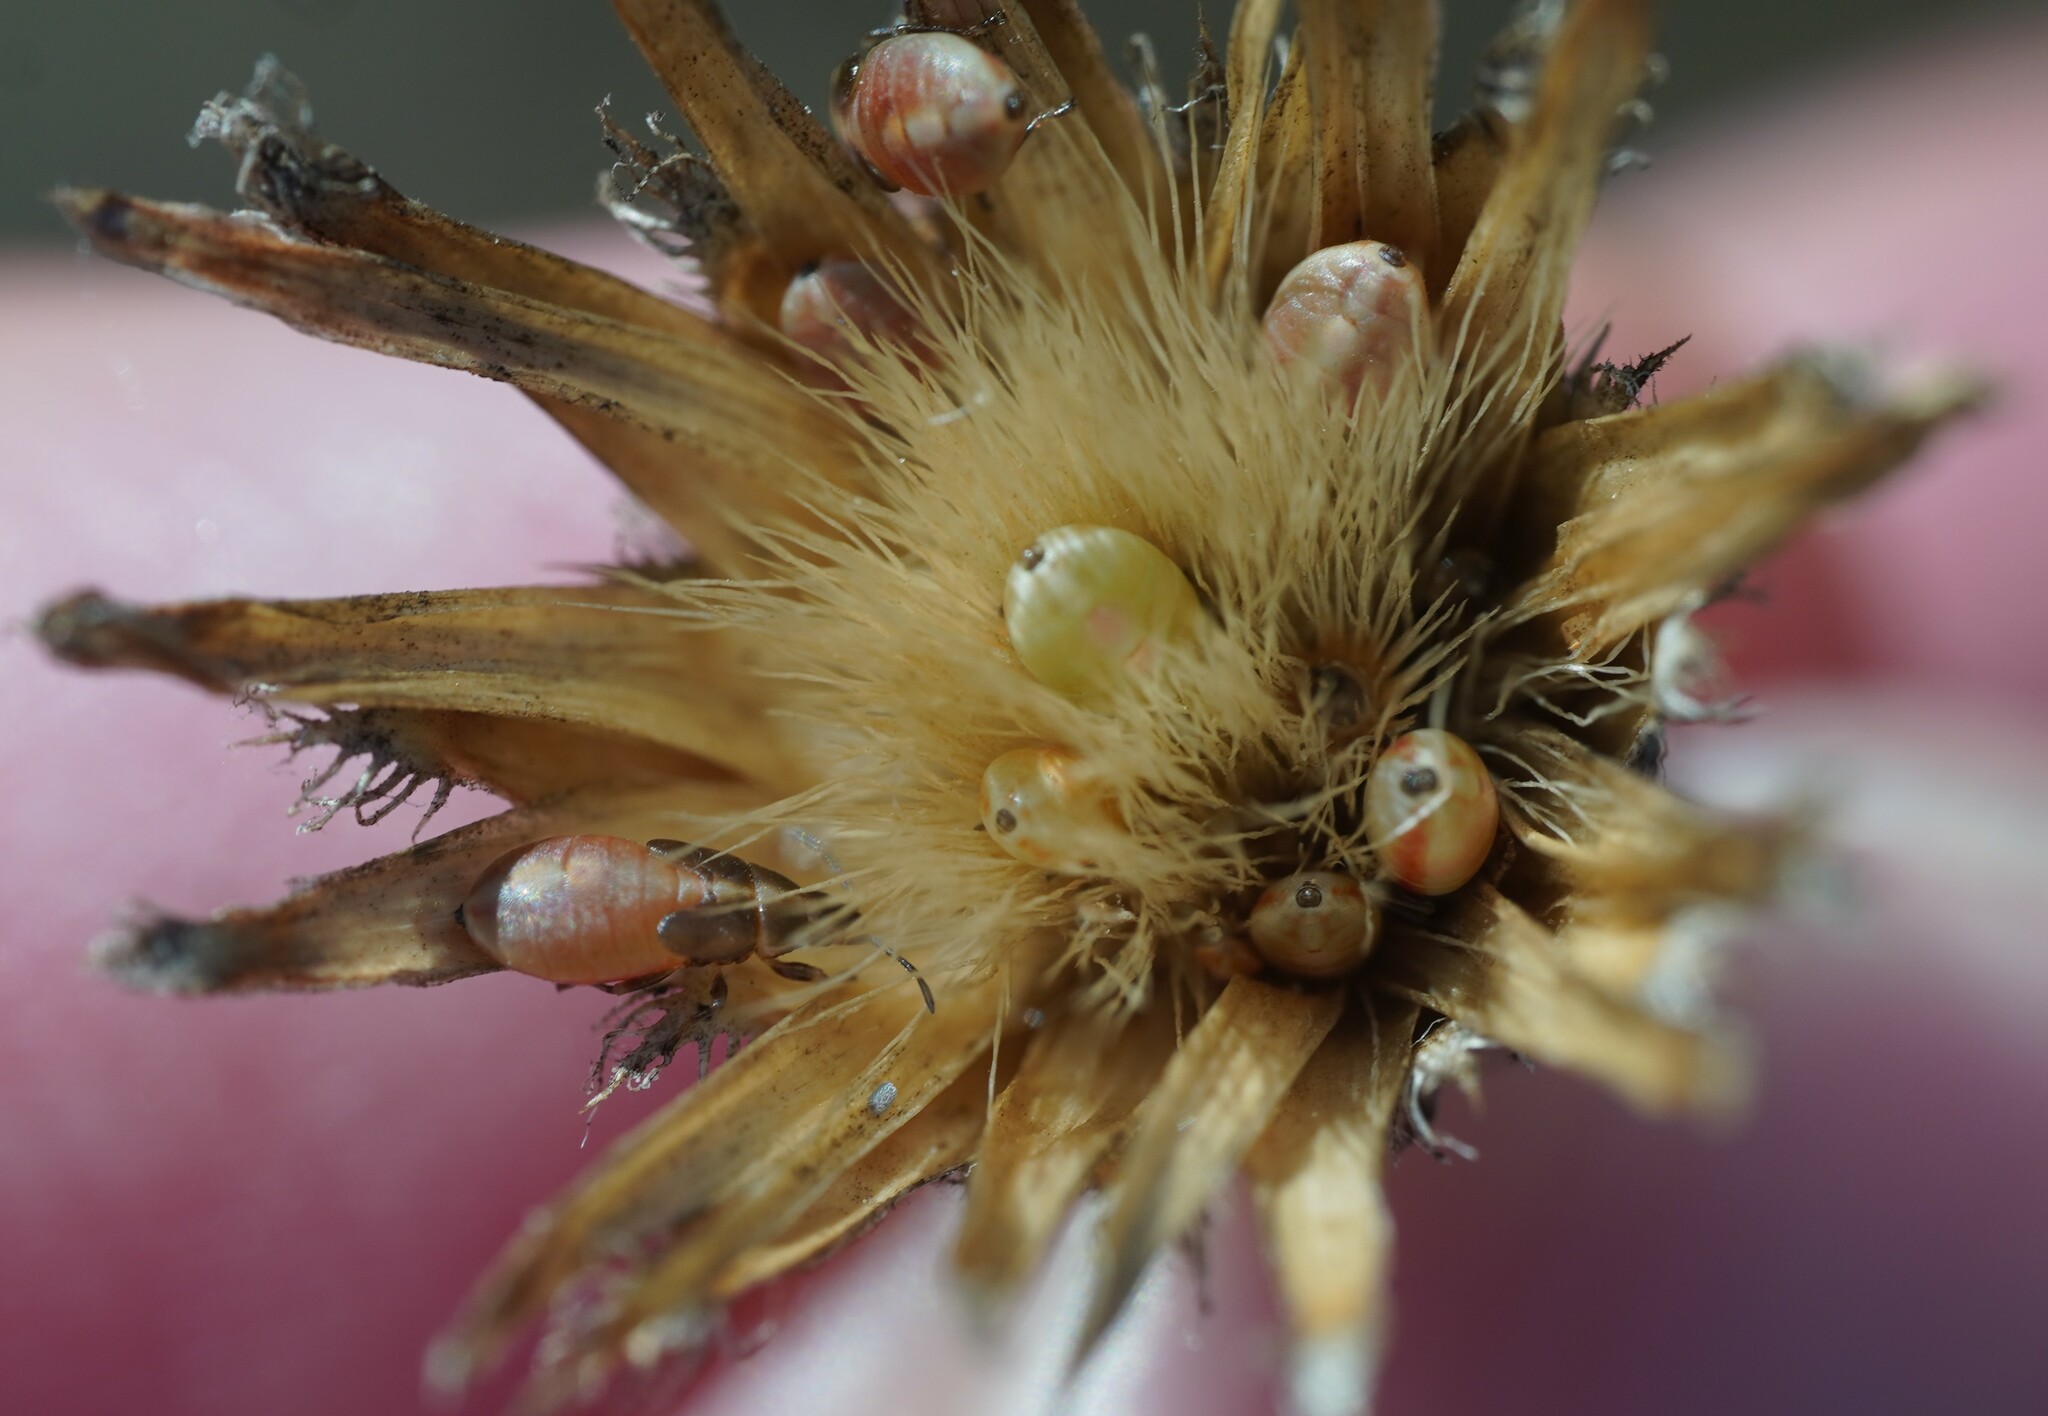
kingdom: Animalia
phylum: Arthropoda
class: Insecta
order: Hemiptera
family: Oxycarenidae
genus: Oxycarenus
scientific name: Oxycarenus pallens
